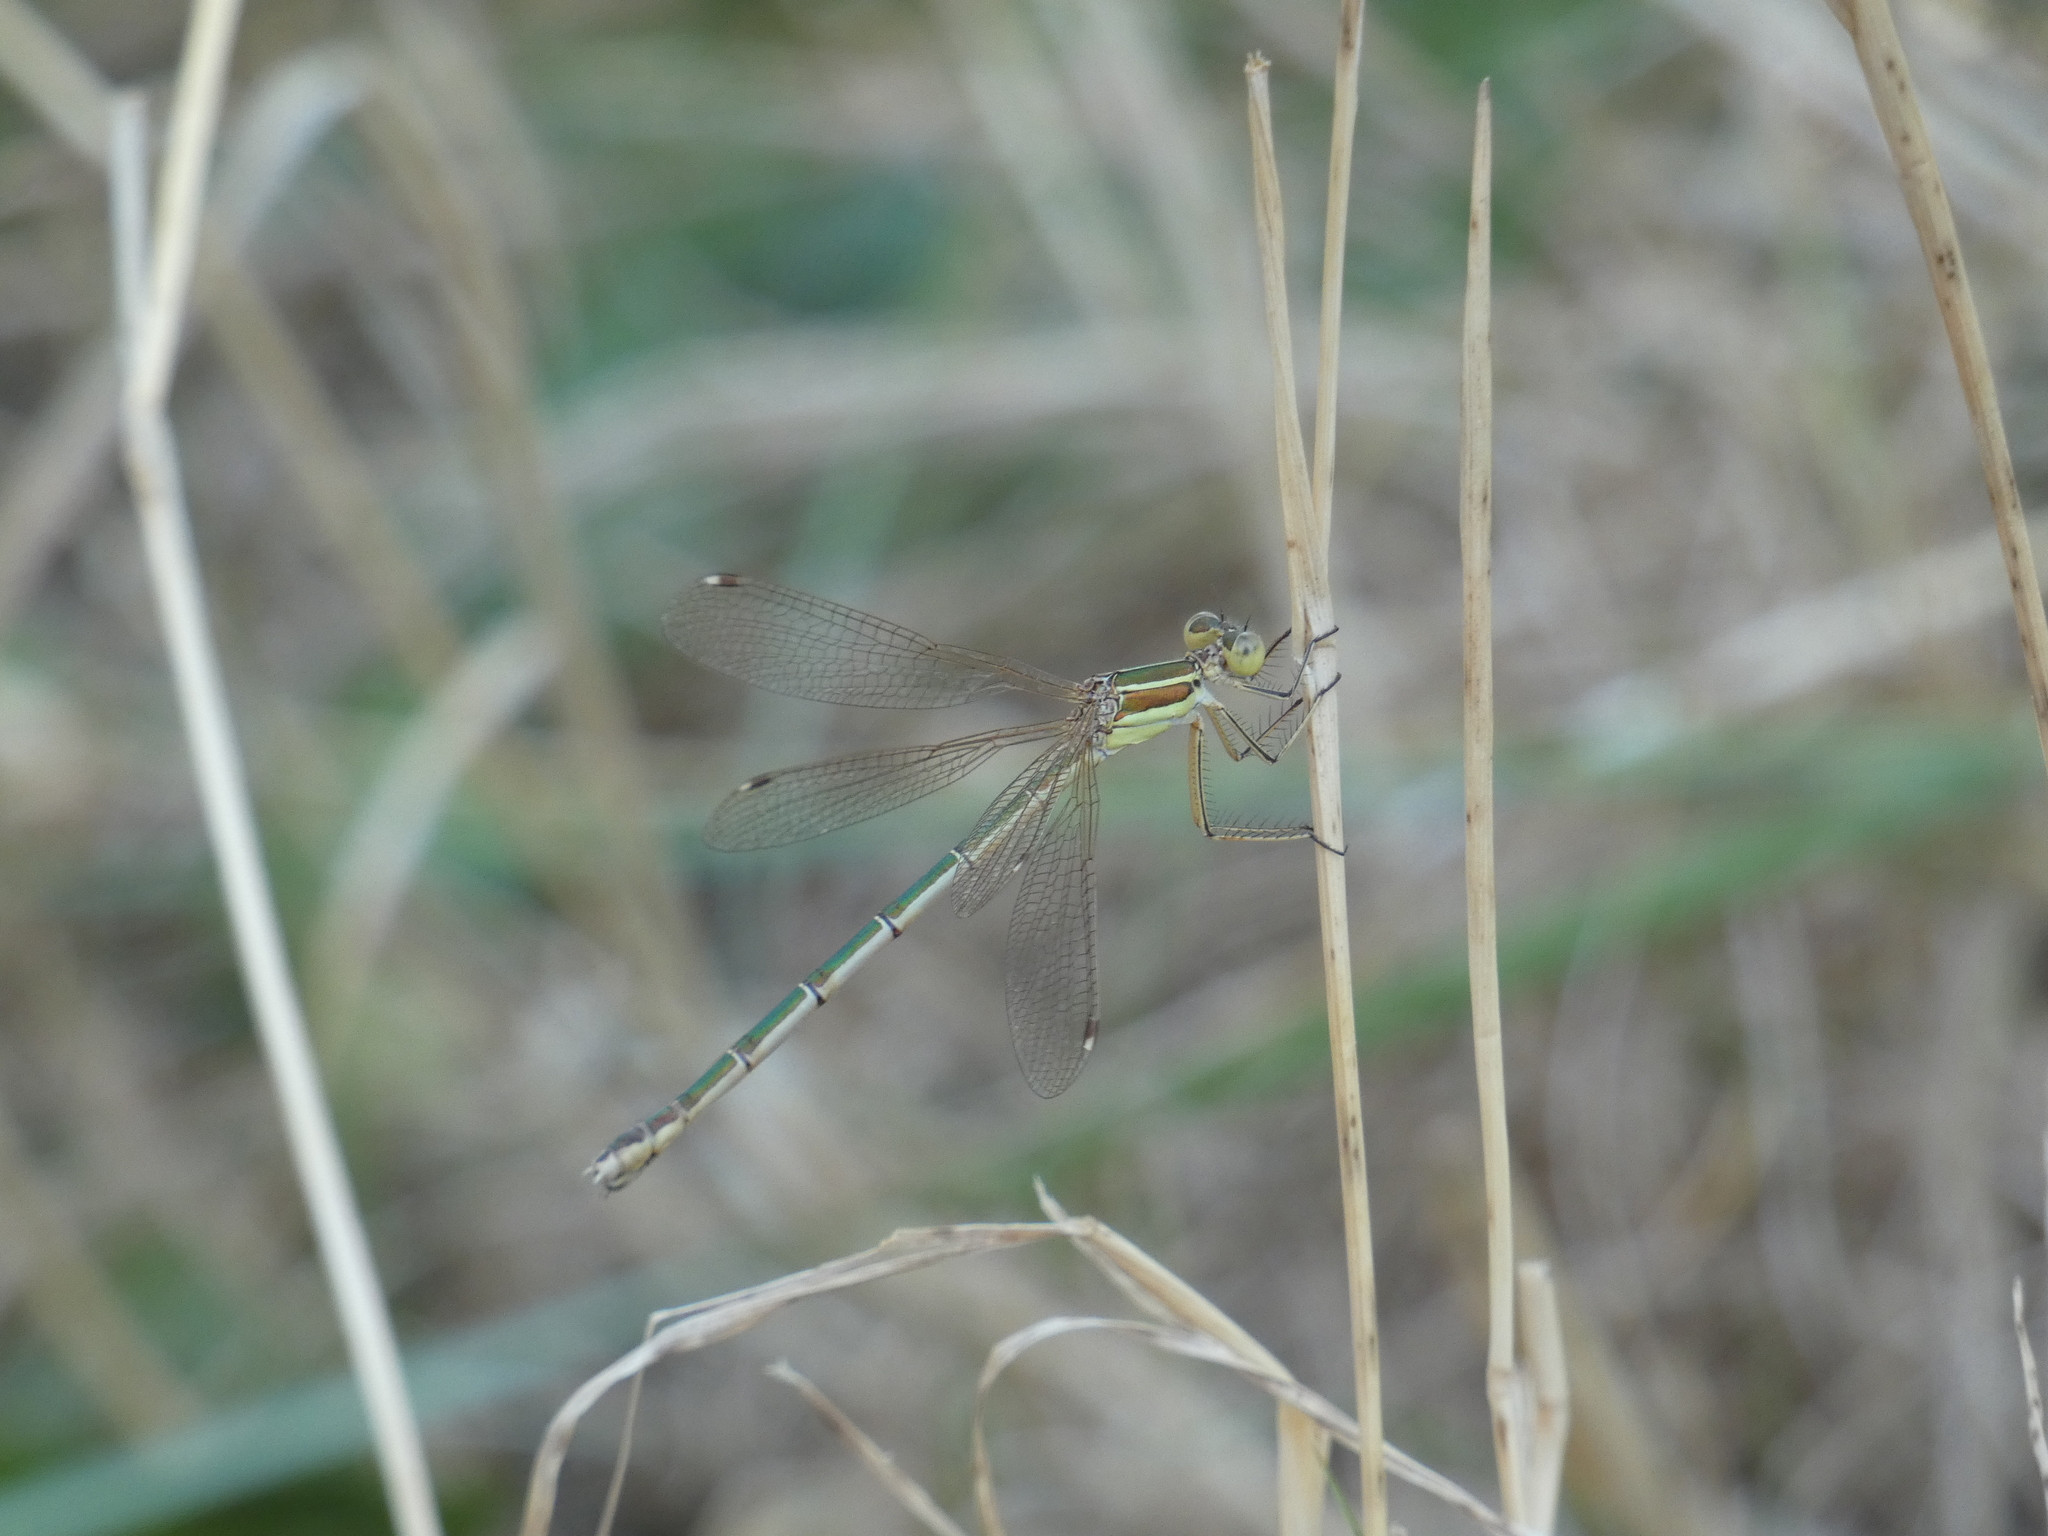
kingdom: Animalia
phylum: Arthropoda
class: Insecta
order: Odonata
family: Lestidae
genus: Lestes
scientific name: Lestes barbarus
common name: Migrant spreadwing
